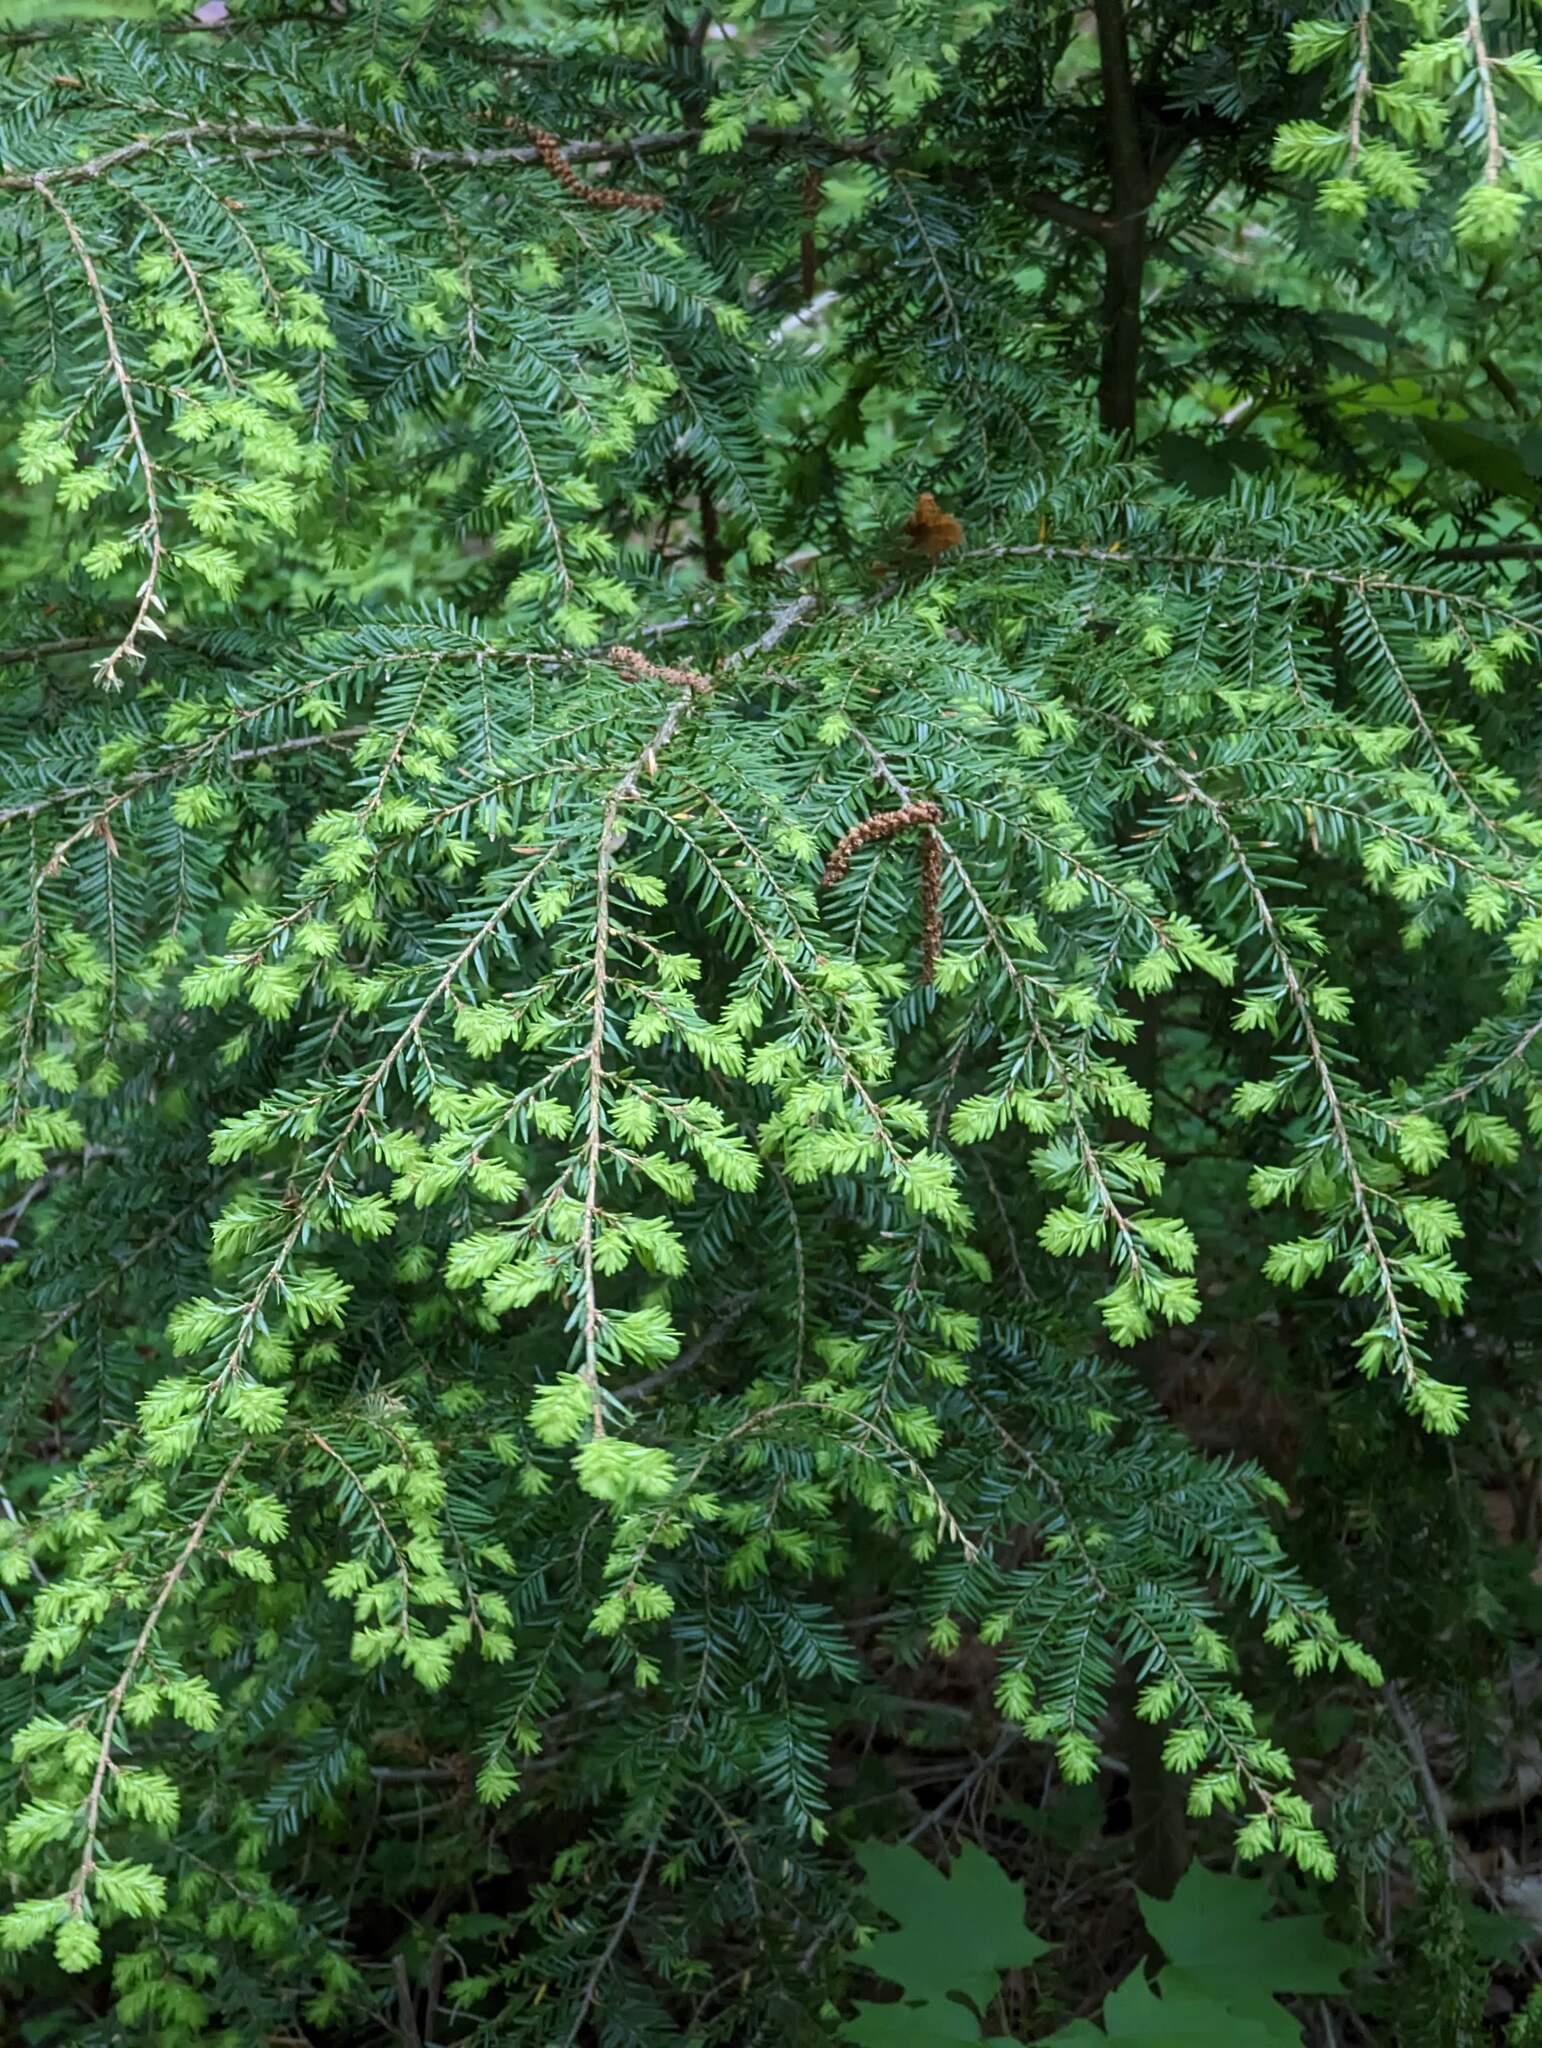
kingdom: Plantae
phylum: Tracheophyta
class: Pinopsida
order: Pinales
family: Pinaceae
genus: Tsuga
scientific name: Tsuga canadensis
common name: Eastern hemlock
